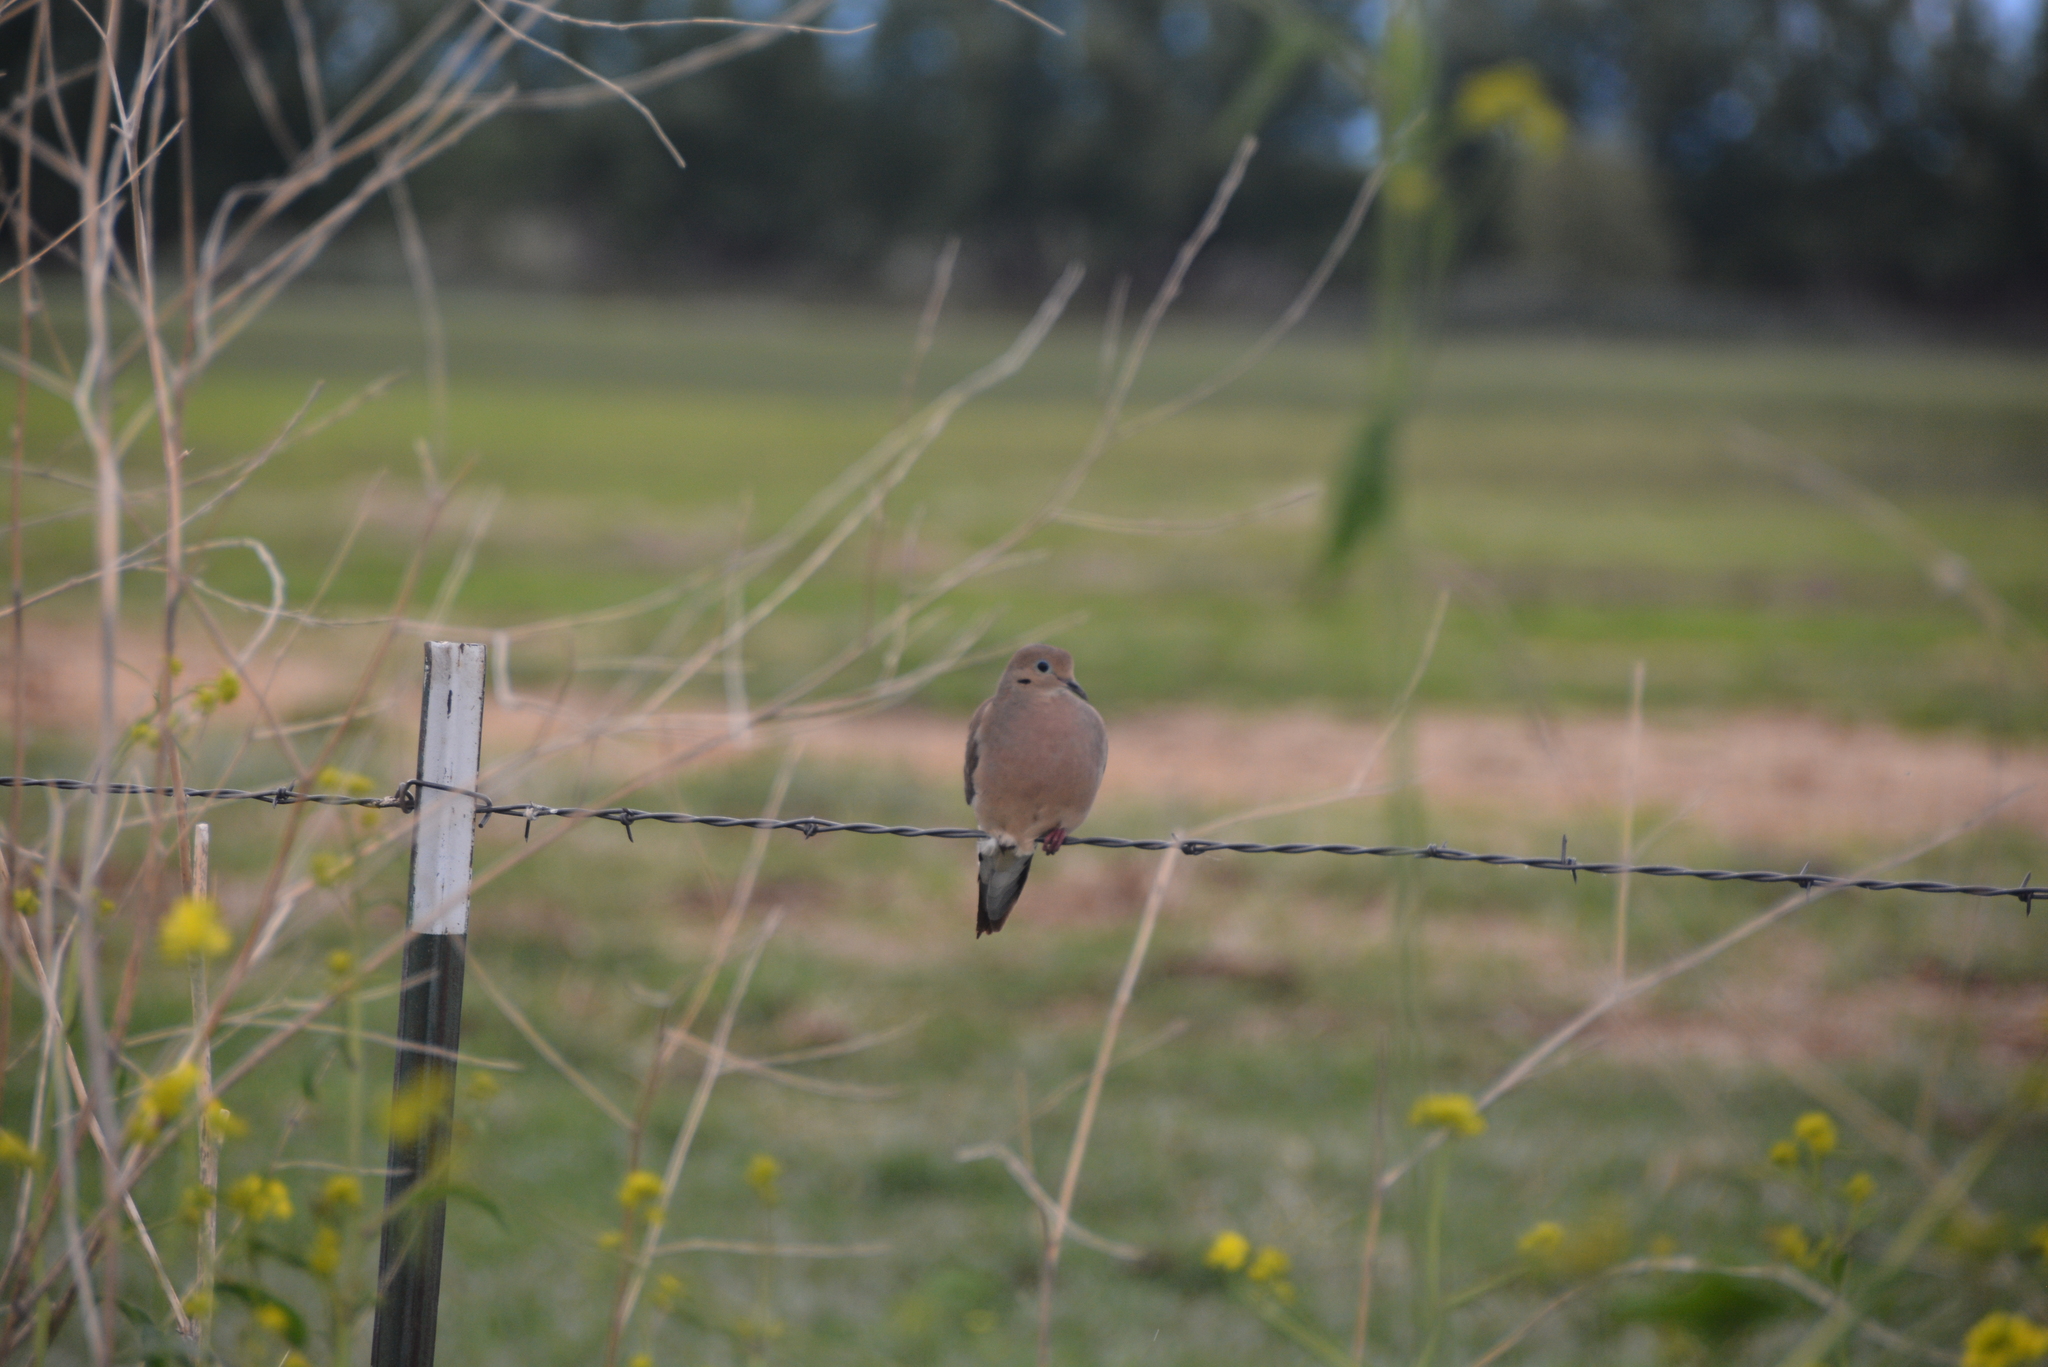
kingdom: Animalia
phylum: Chordata
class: Aves
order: Columbiformes
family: Columbidae
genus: Zenaida
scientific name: Zenaida macroura
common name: Mourning dove
